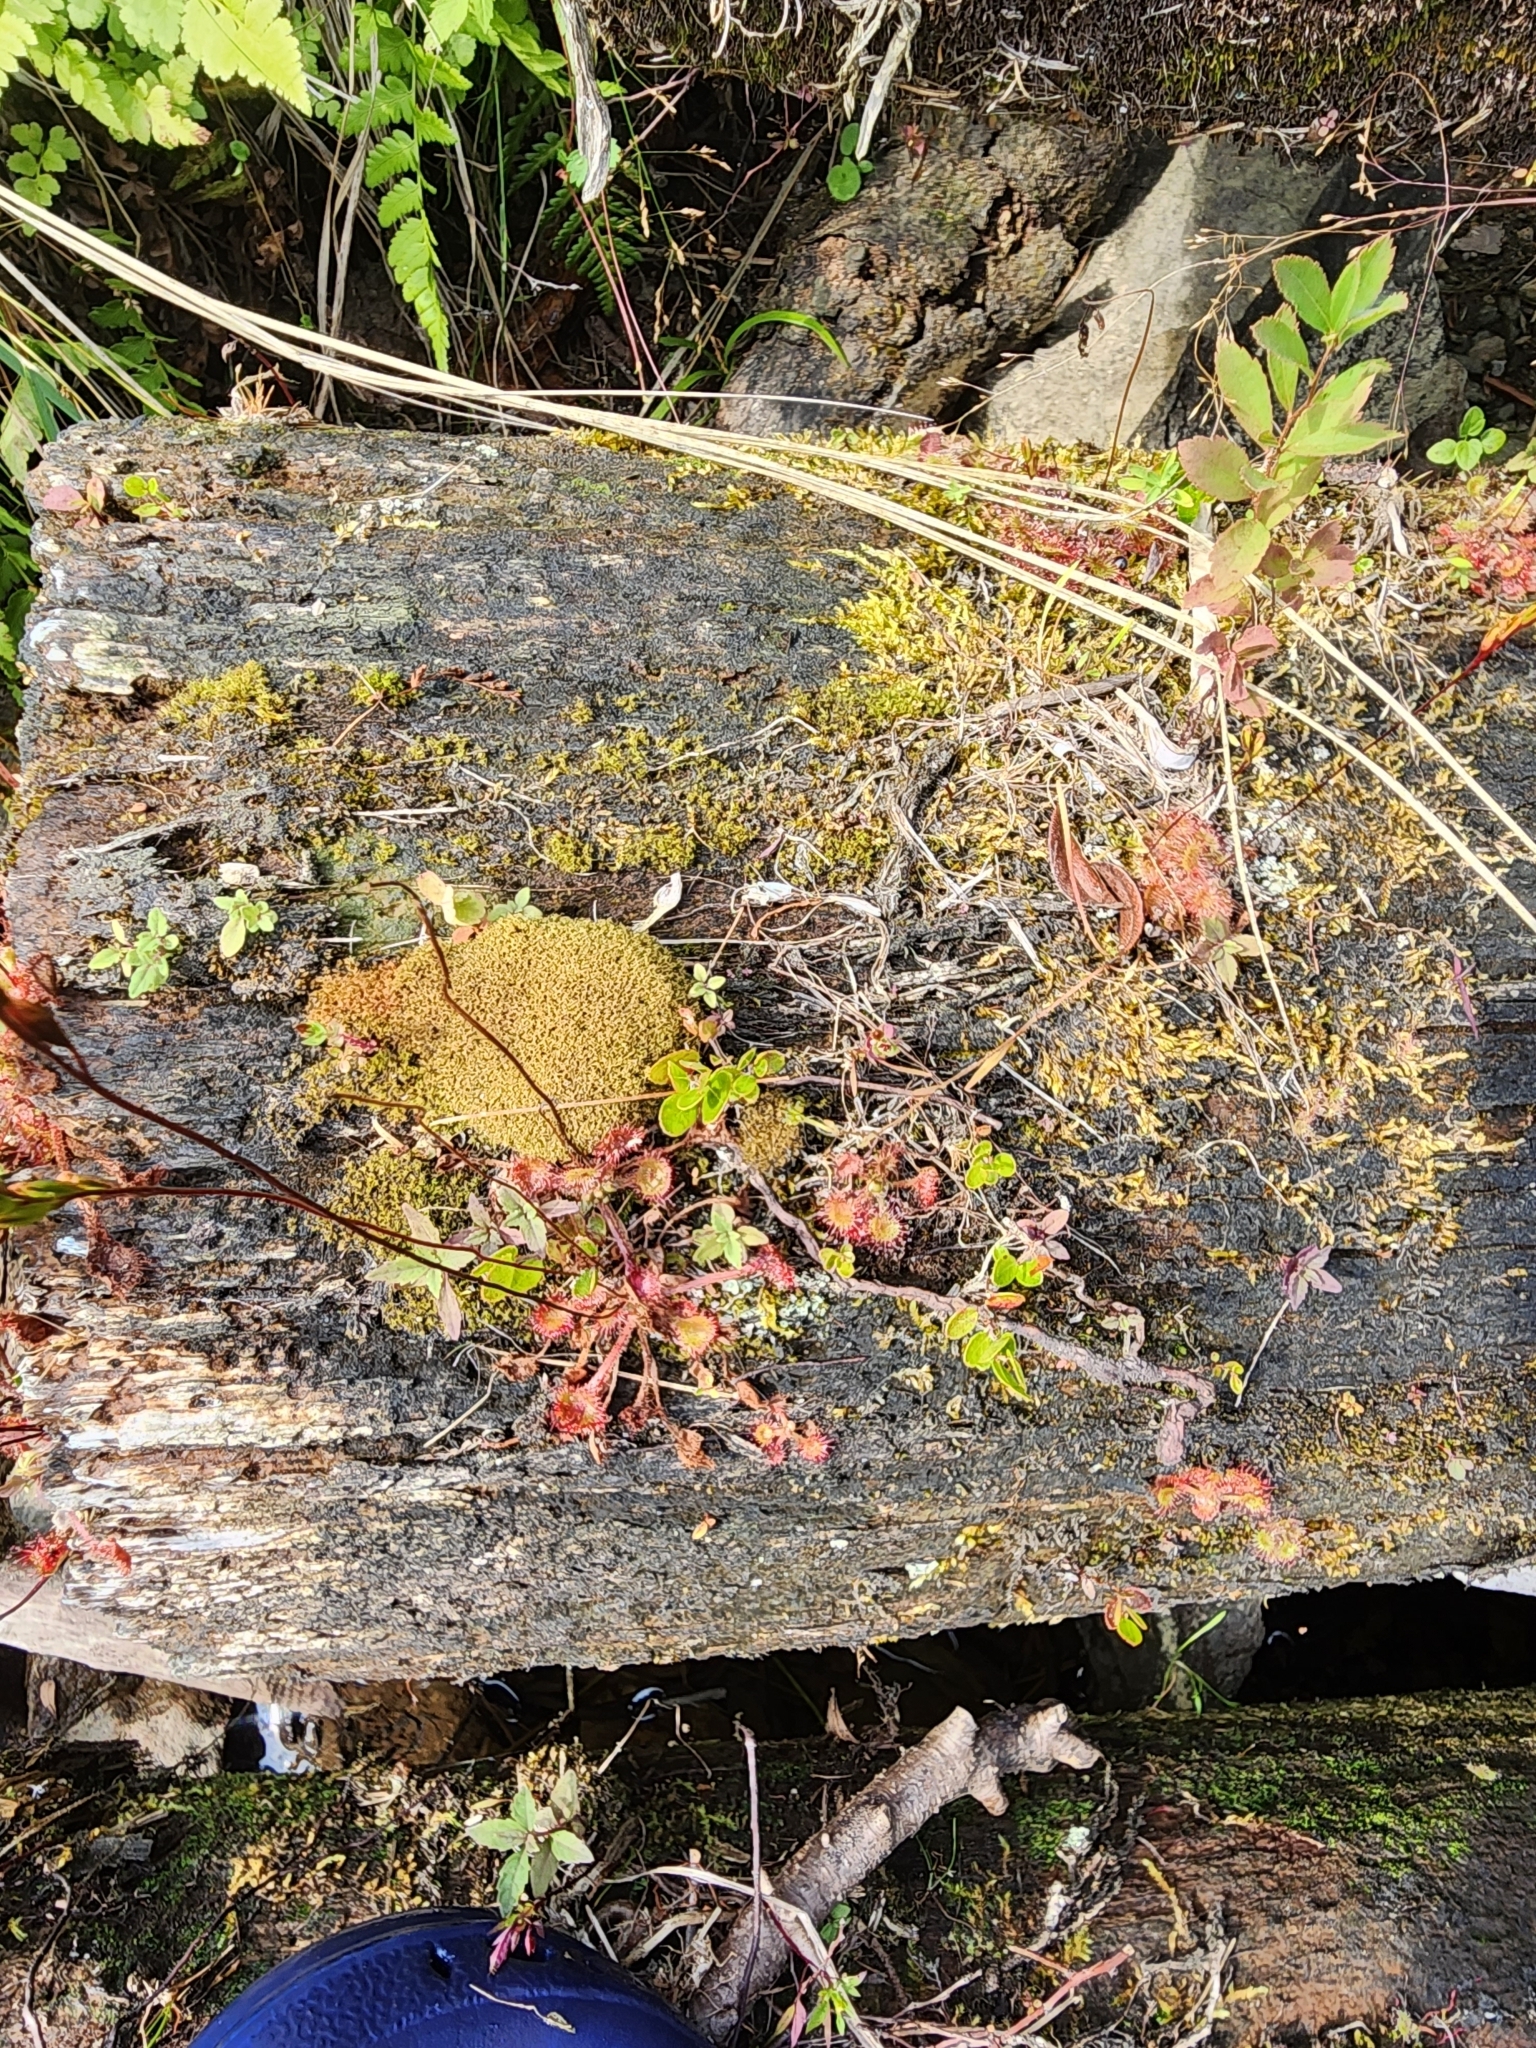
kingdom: Plantae
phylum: Tracheophyta
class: Magnoliopsida
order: Caryophyllales
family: Droseraceae
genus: Drosera
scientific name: Drosera rotundifolia
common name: Round-leaved sundew
